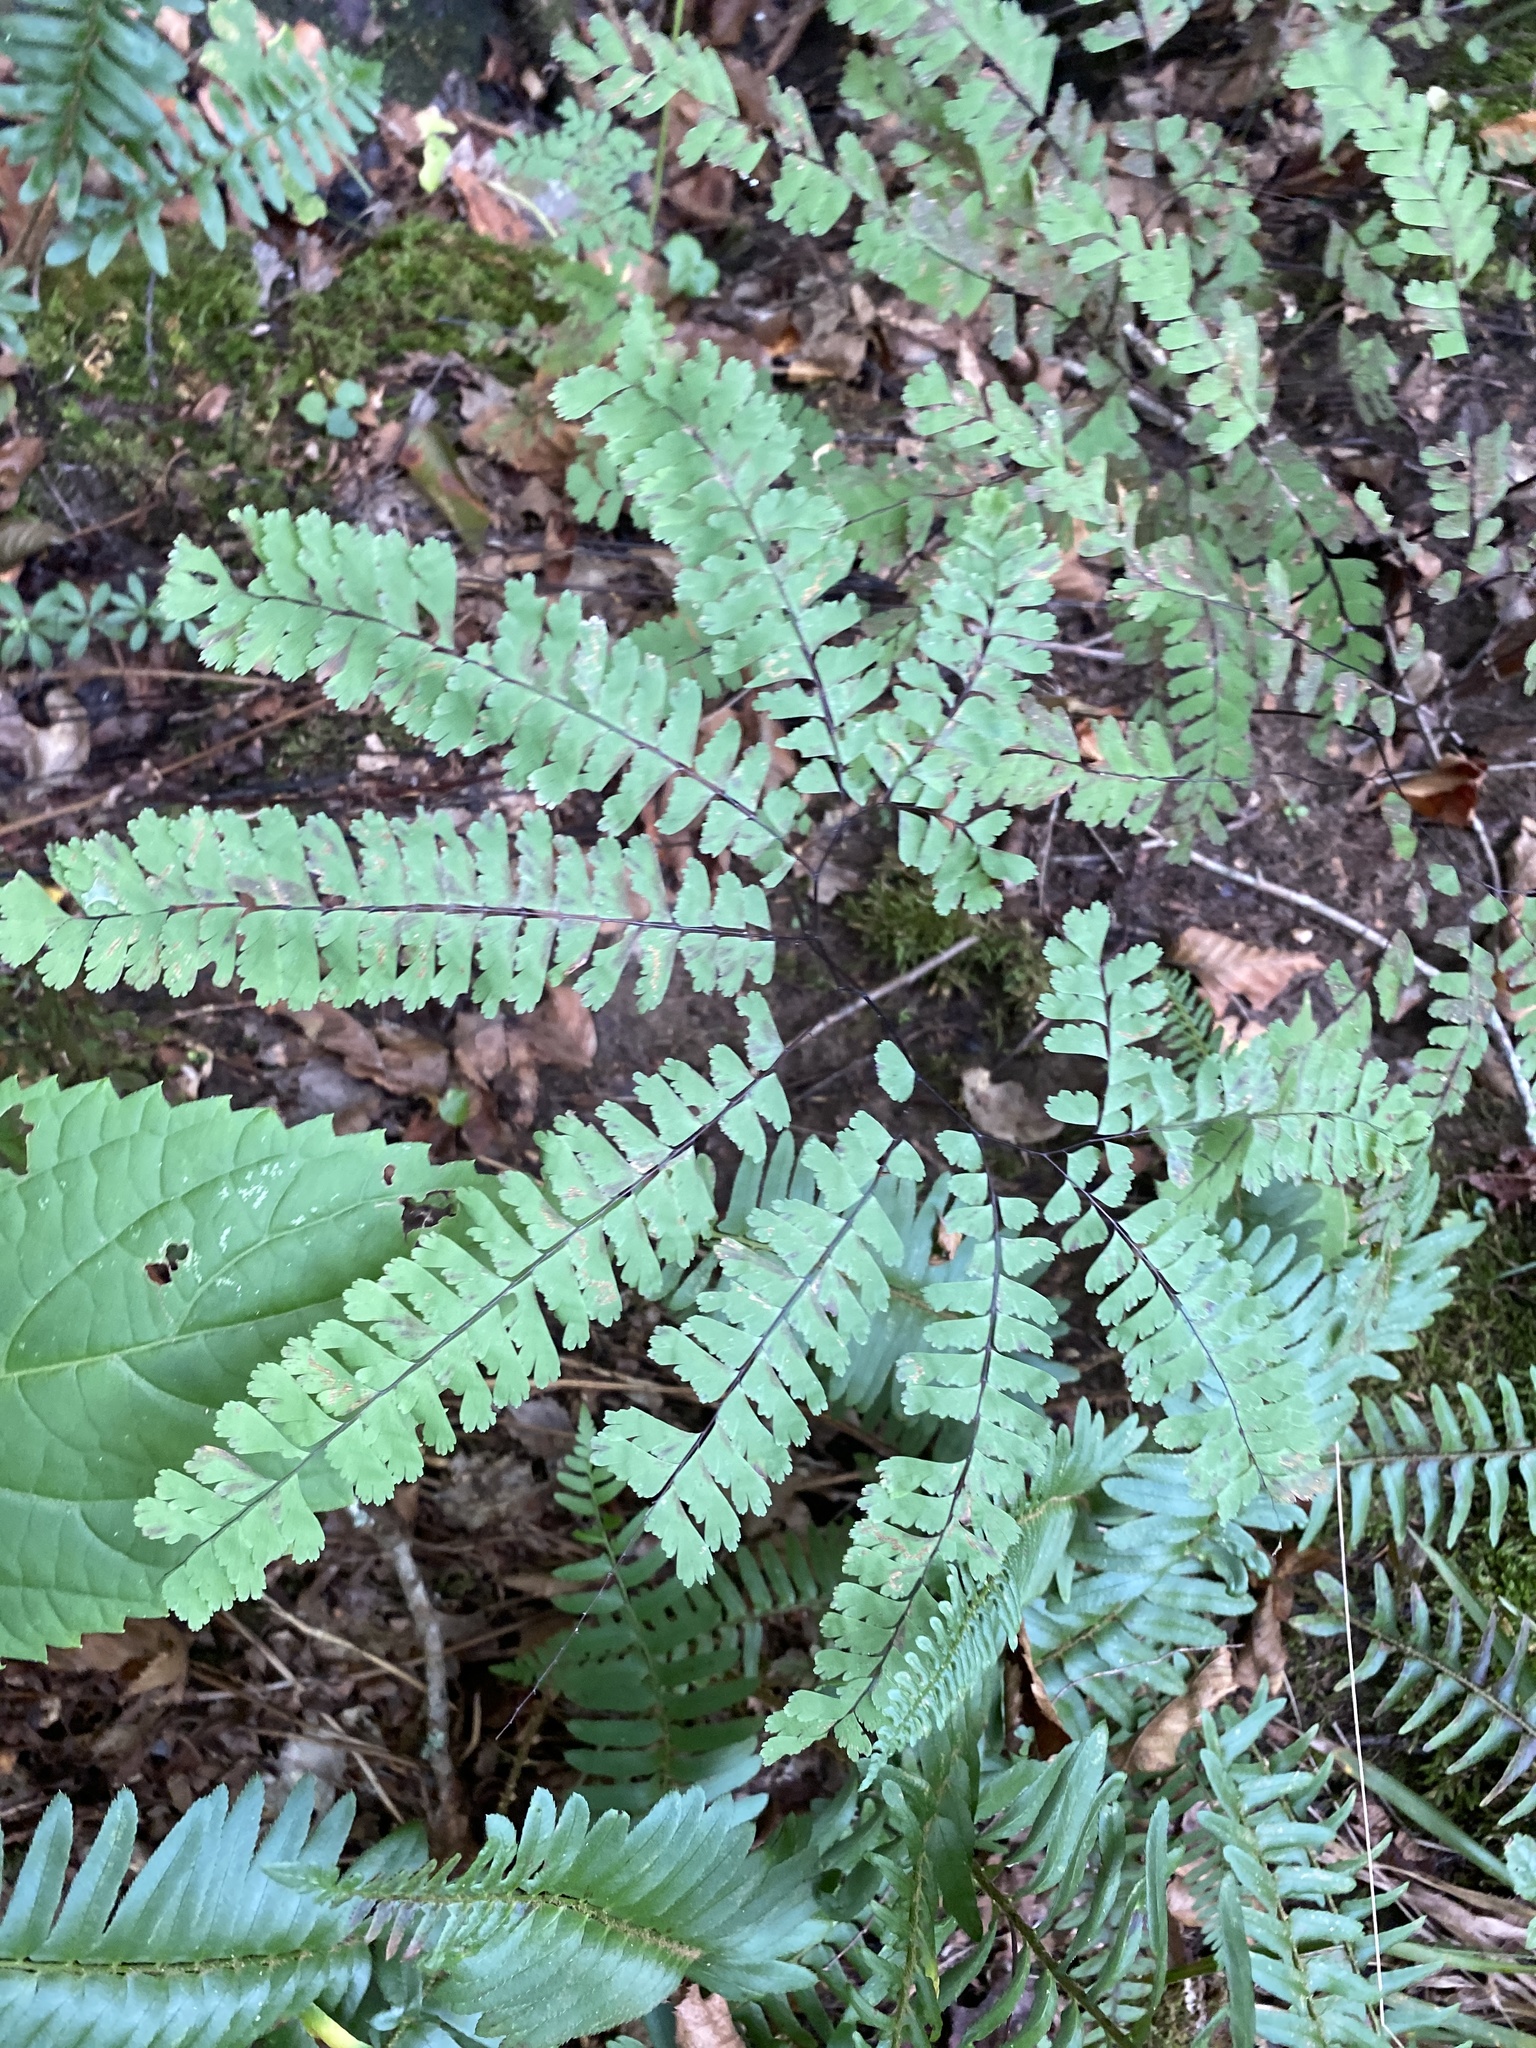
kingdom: Plantae
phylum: Tracheophyta
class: Polypodiopsida
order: Polypodiales
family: Pteridaceae
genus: Adiantum
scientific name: Adiantum pedatum
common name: Five-finger fern
